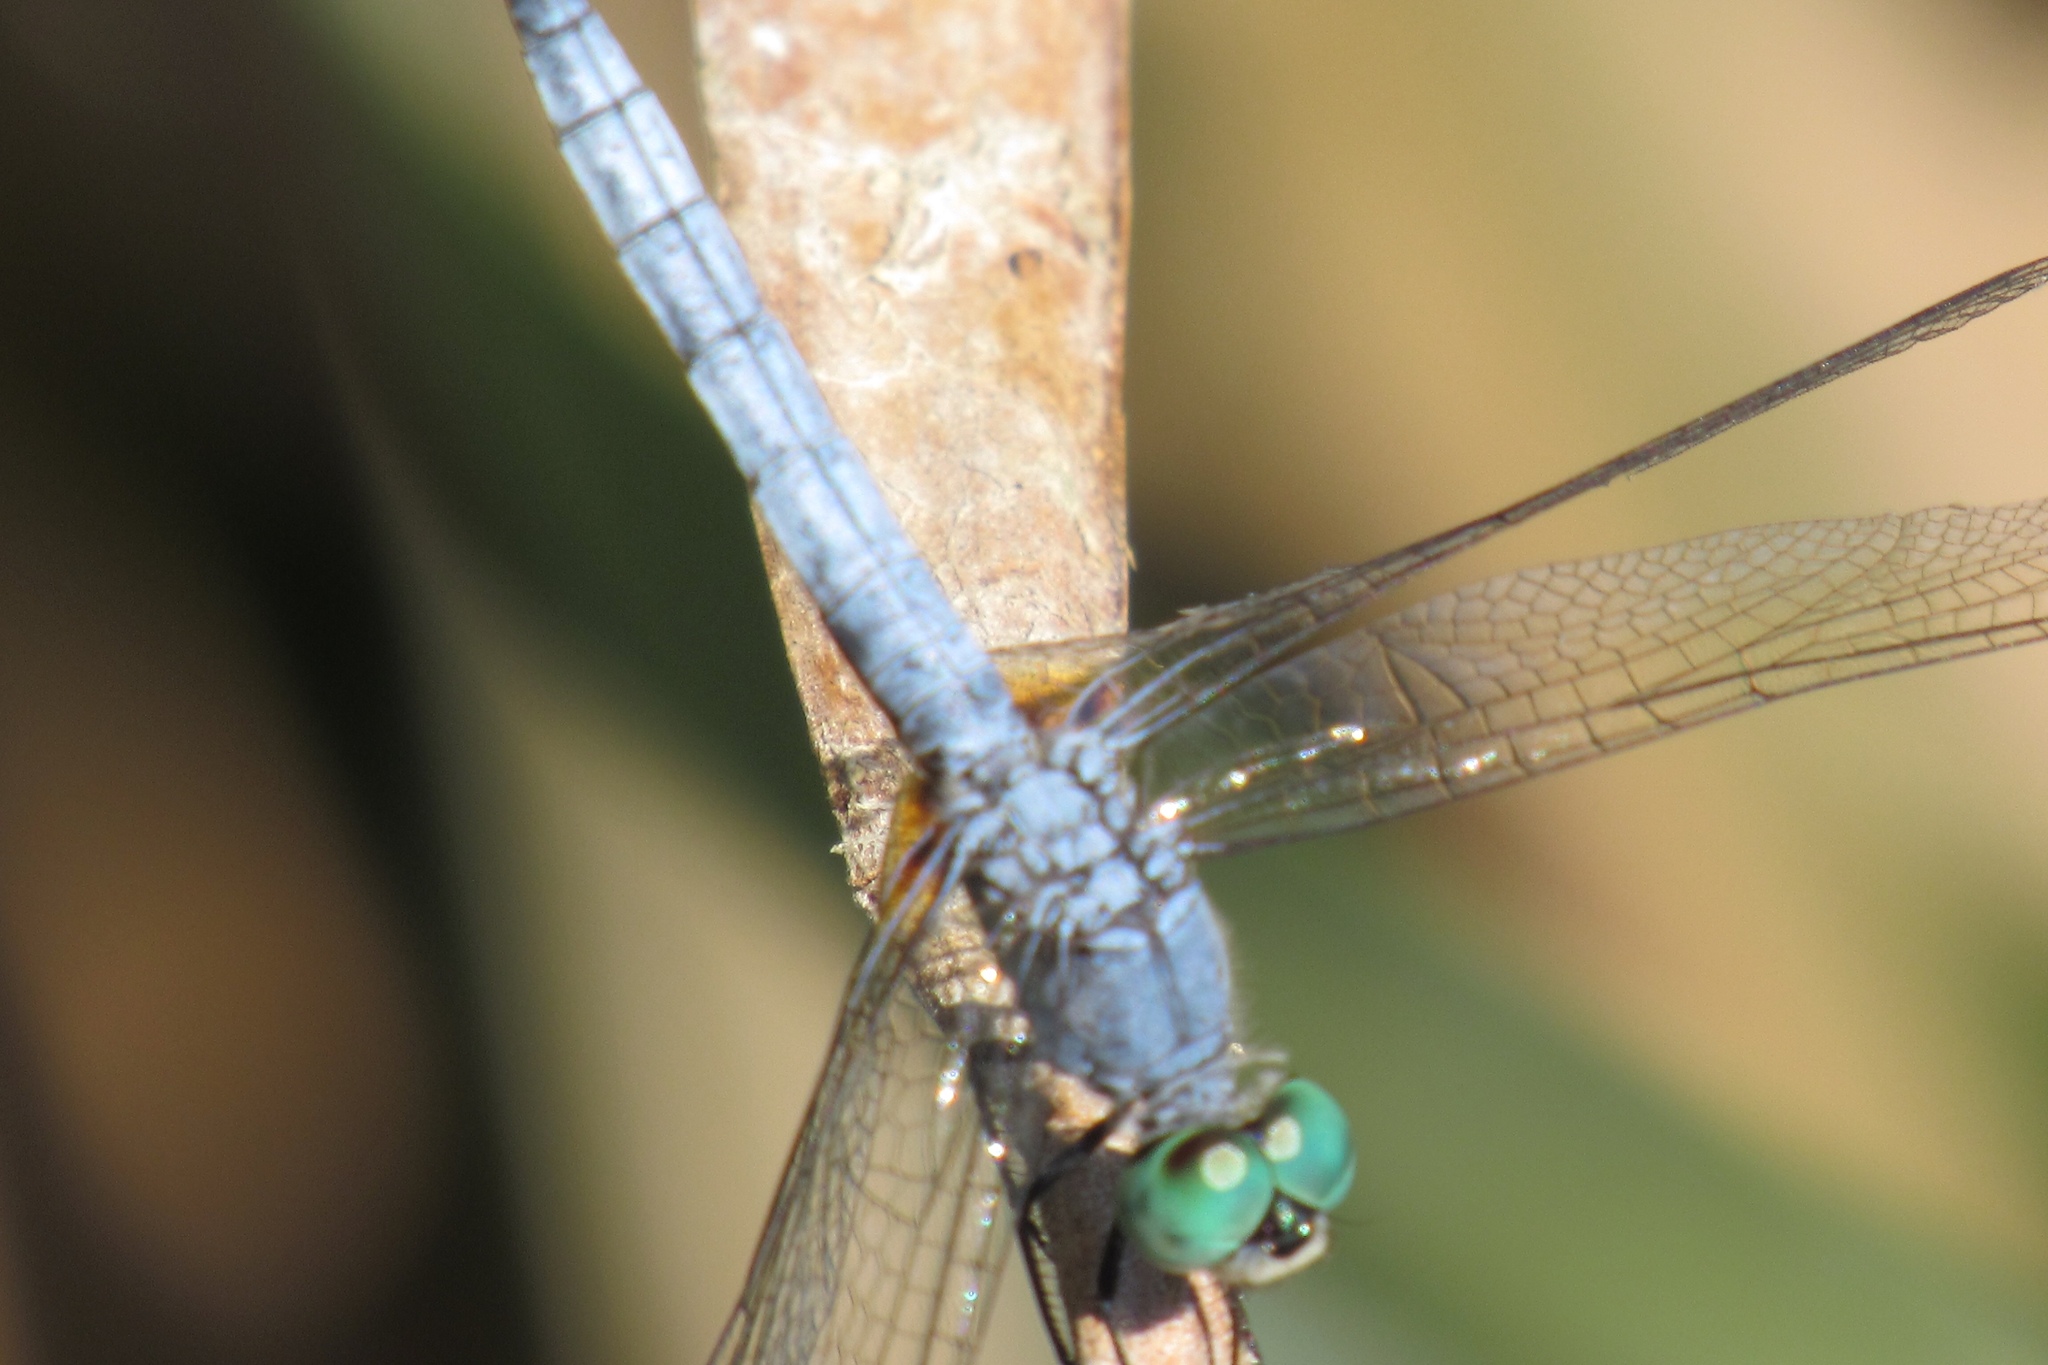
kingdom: Animalia
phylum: Arthropoda
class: Insecta
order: Odonata
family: Libellulidae
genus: Pachydiplax
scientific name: Pachydiplax longipennis
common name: Blue dasher
